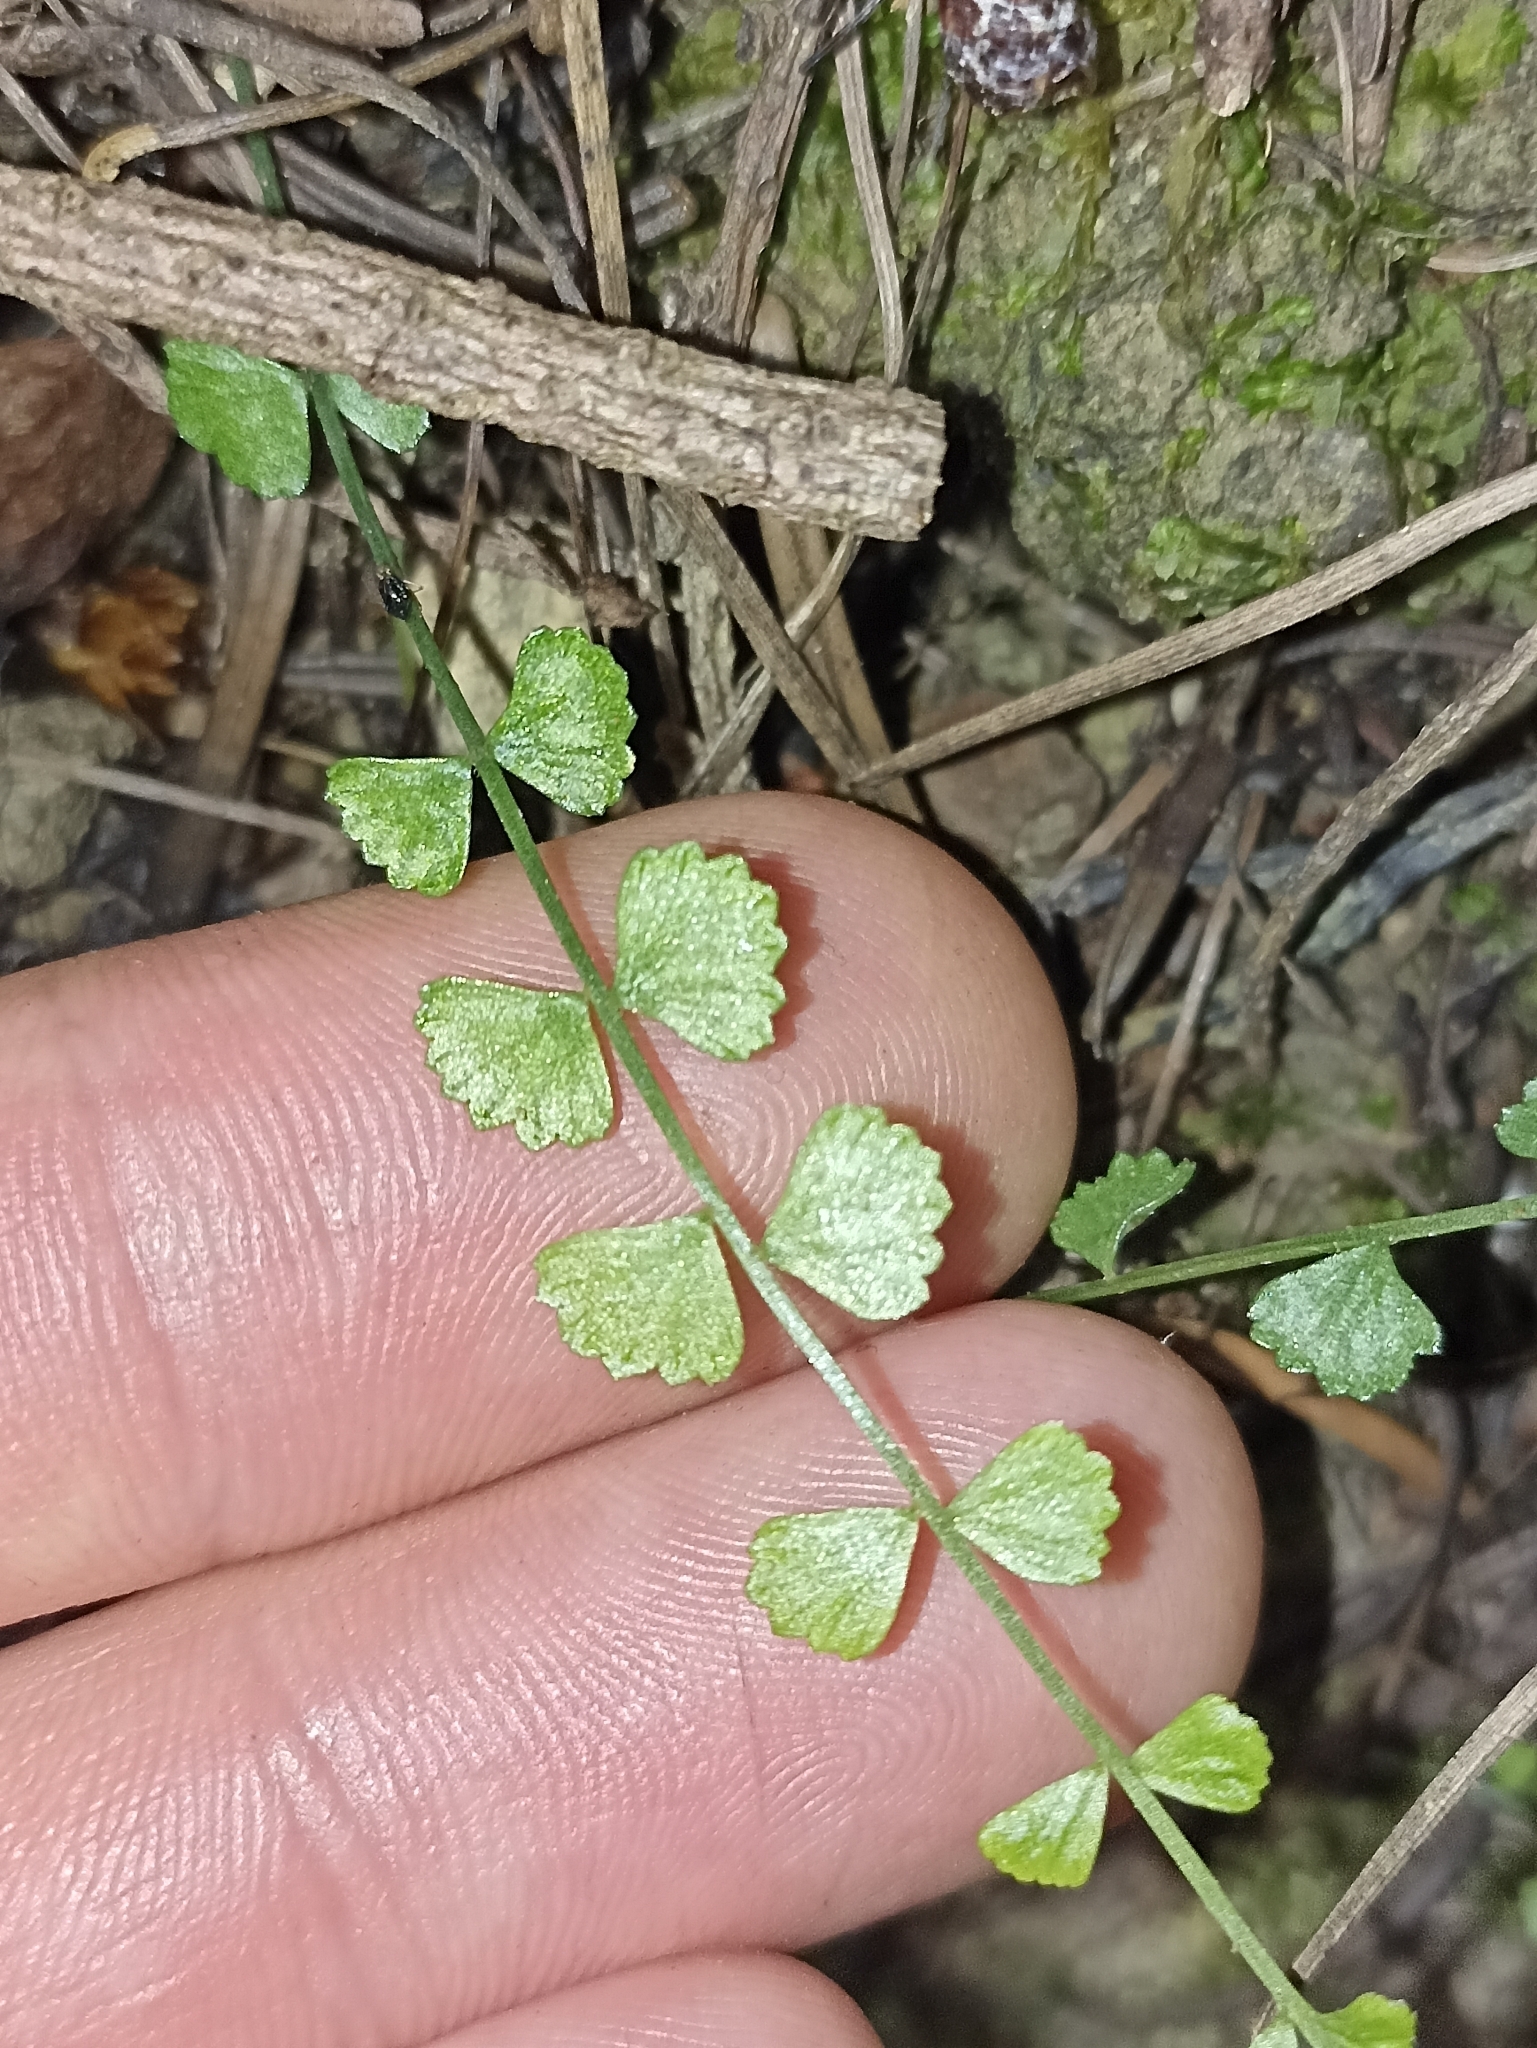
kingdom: Plantae
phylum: Tracheophyta
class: Polypodiopsida
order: Polypodiales
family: Aspleniaceae
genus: Asplenium
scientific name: Asplenium flabellifolium
